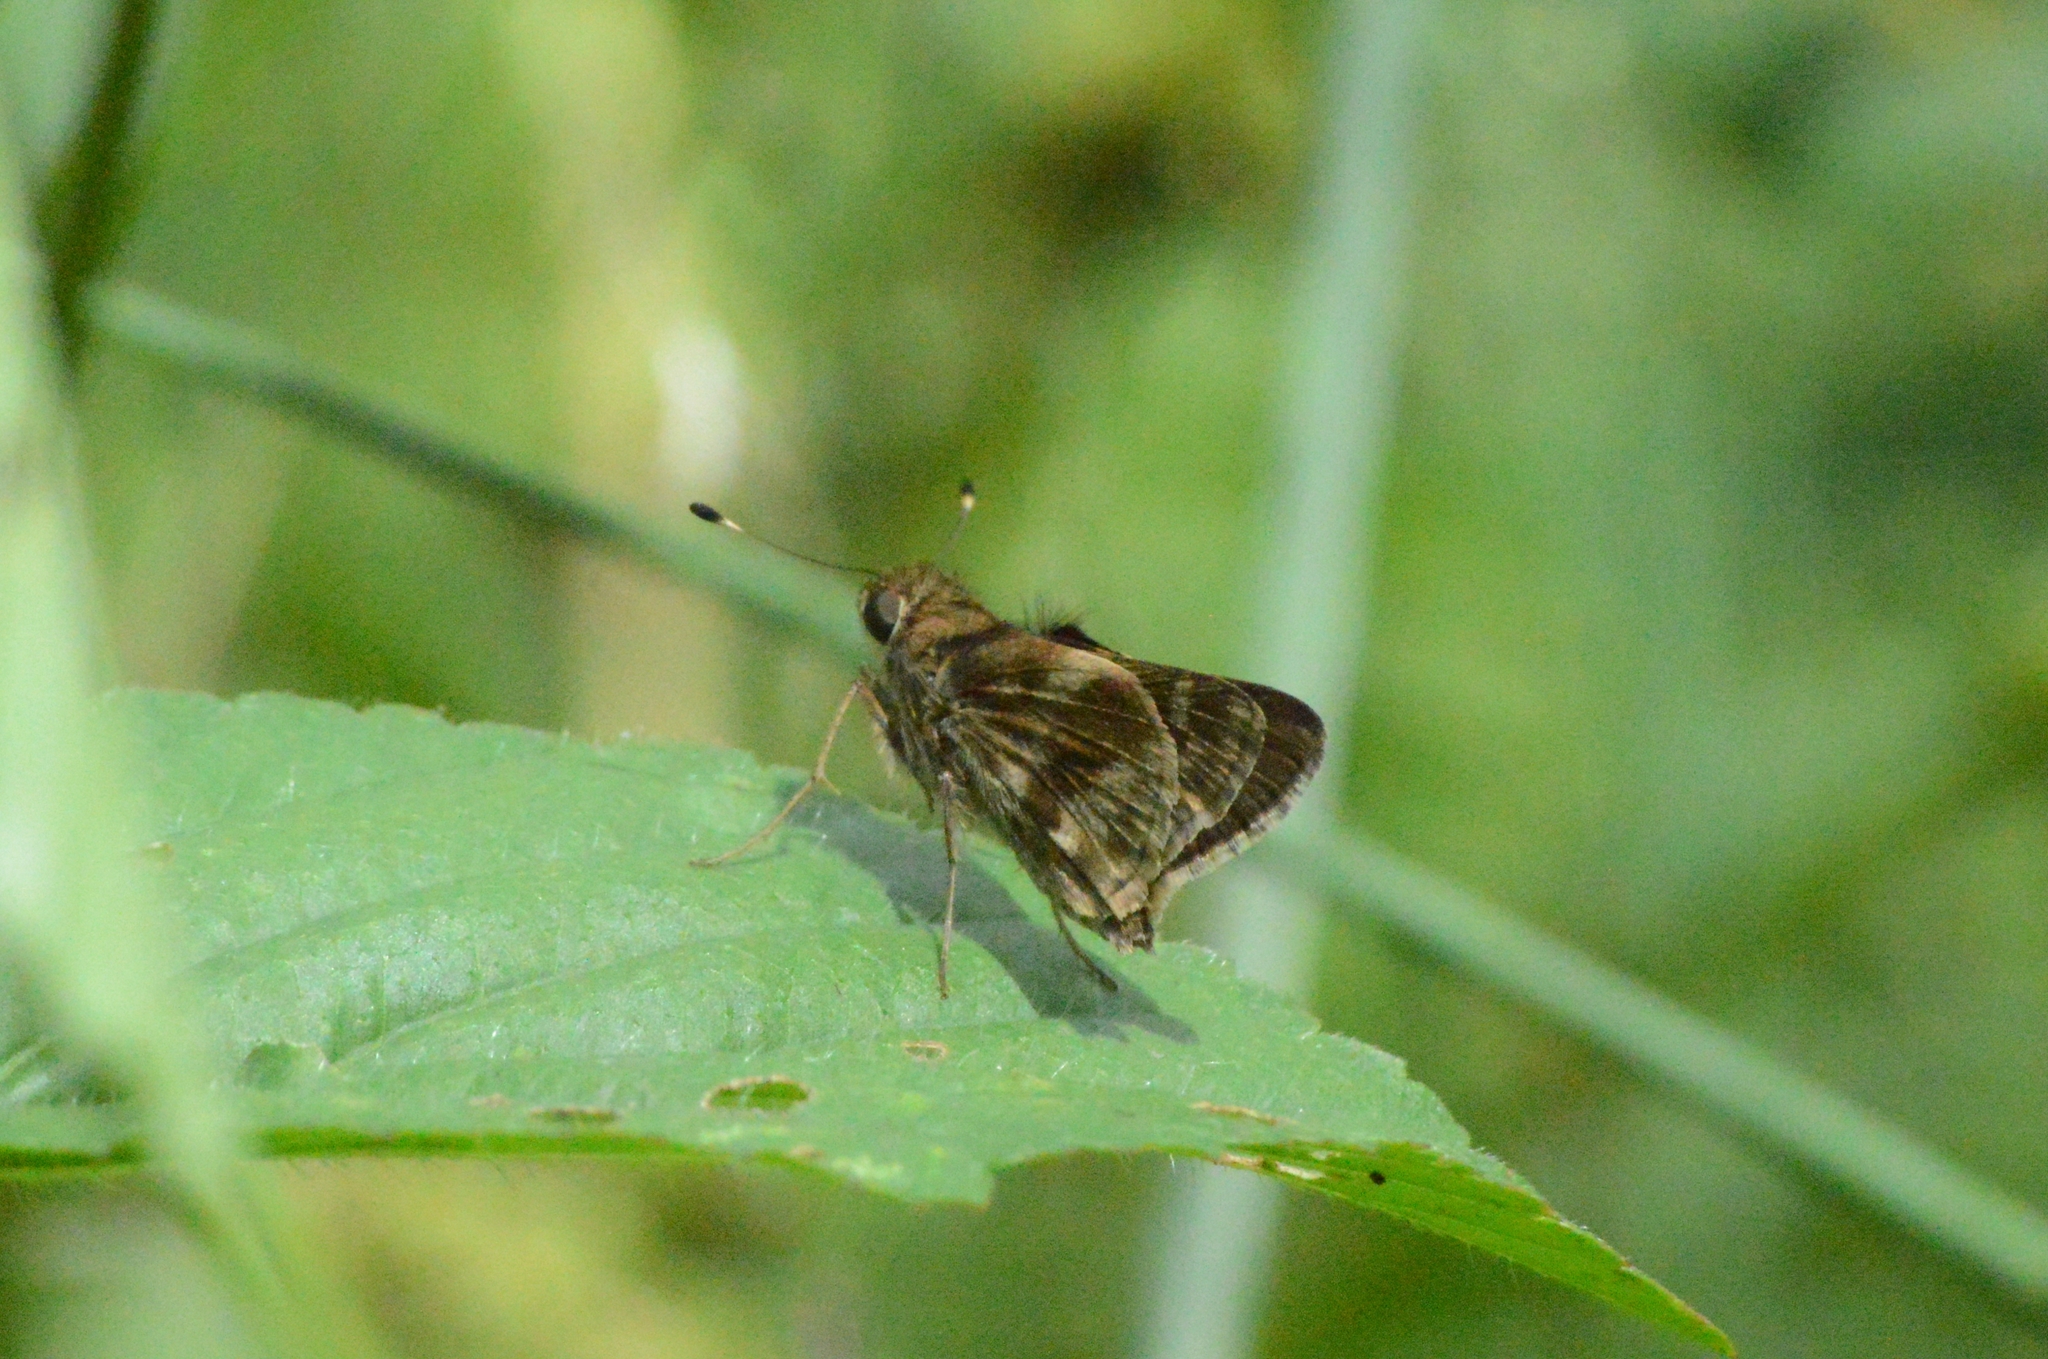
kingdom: Animalia
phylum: Arthropoda
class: Insecta
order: Lepidoptera
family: Hesperiidae
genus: Pompeius
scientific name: Pompeius pompeius
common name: Pompeius skipper
